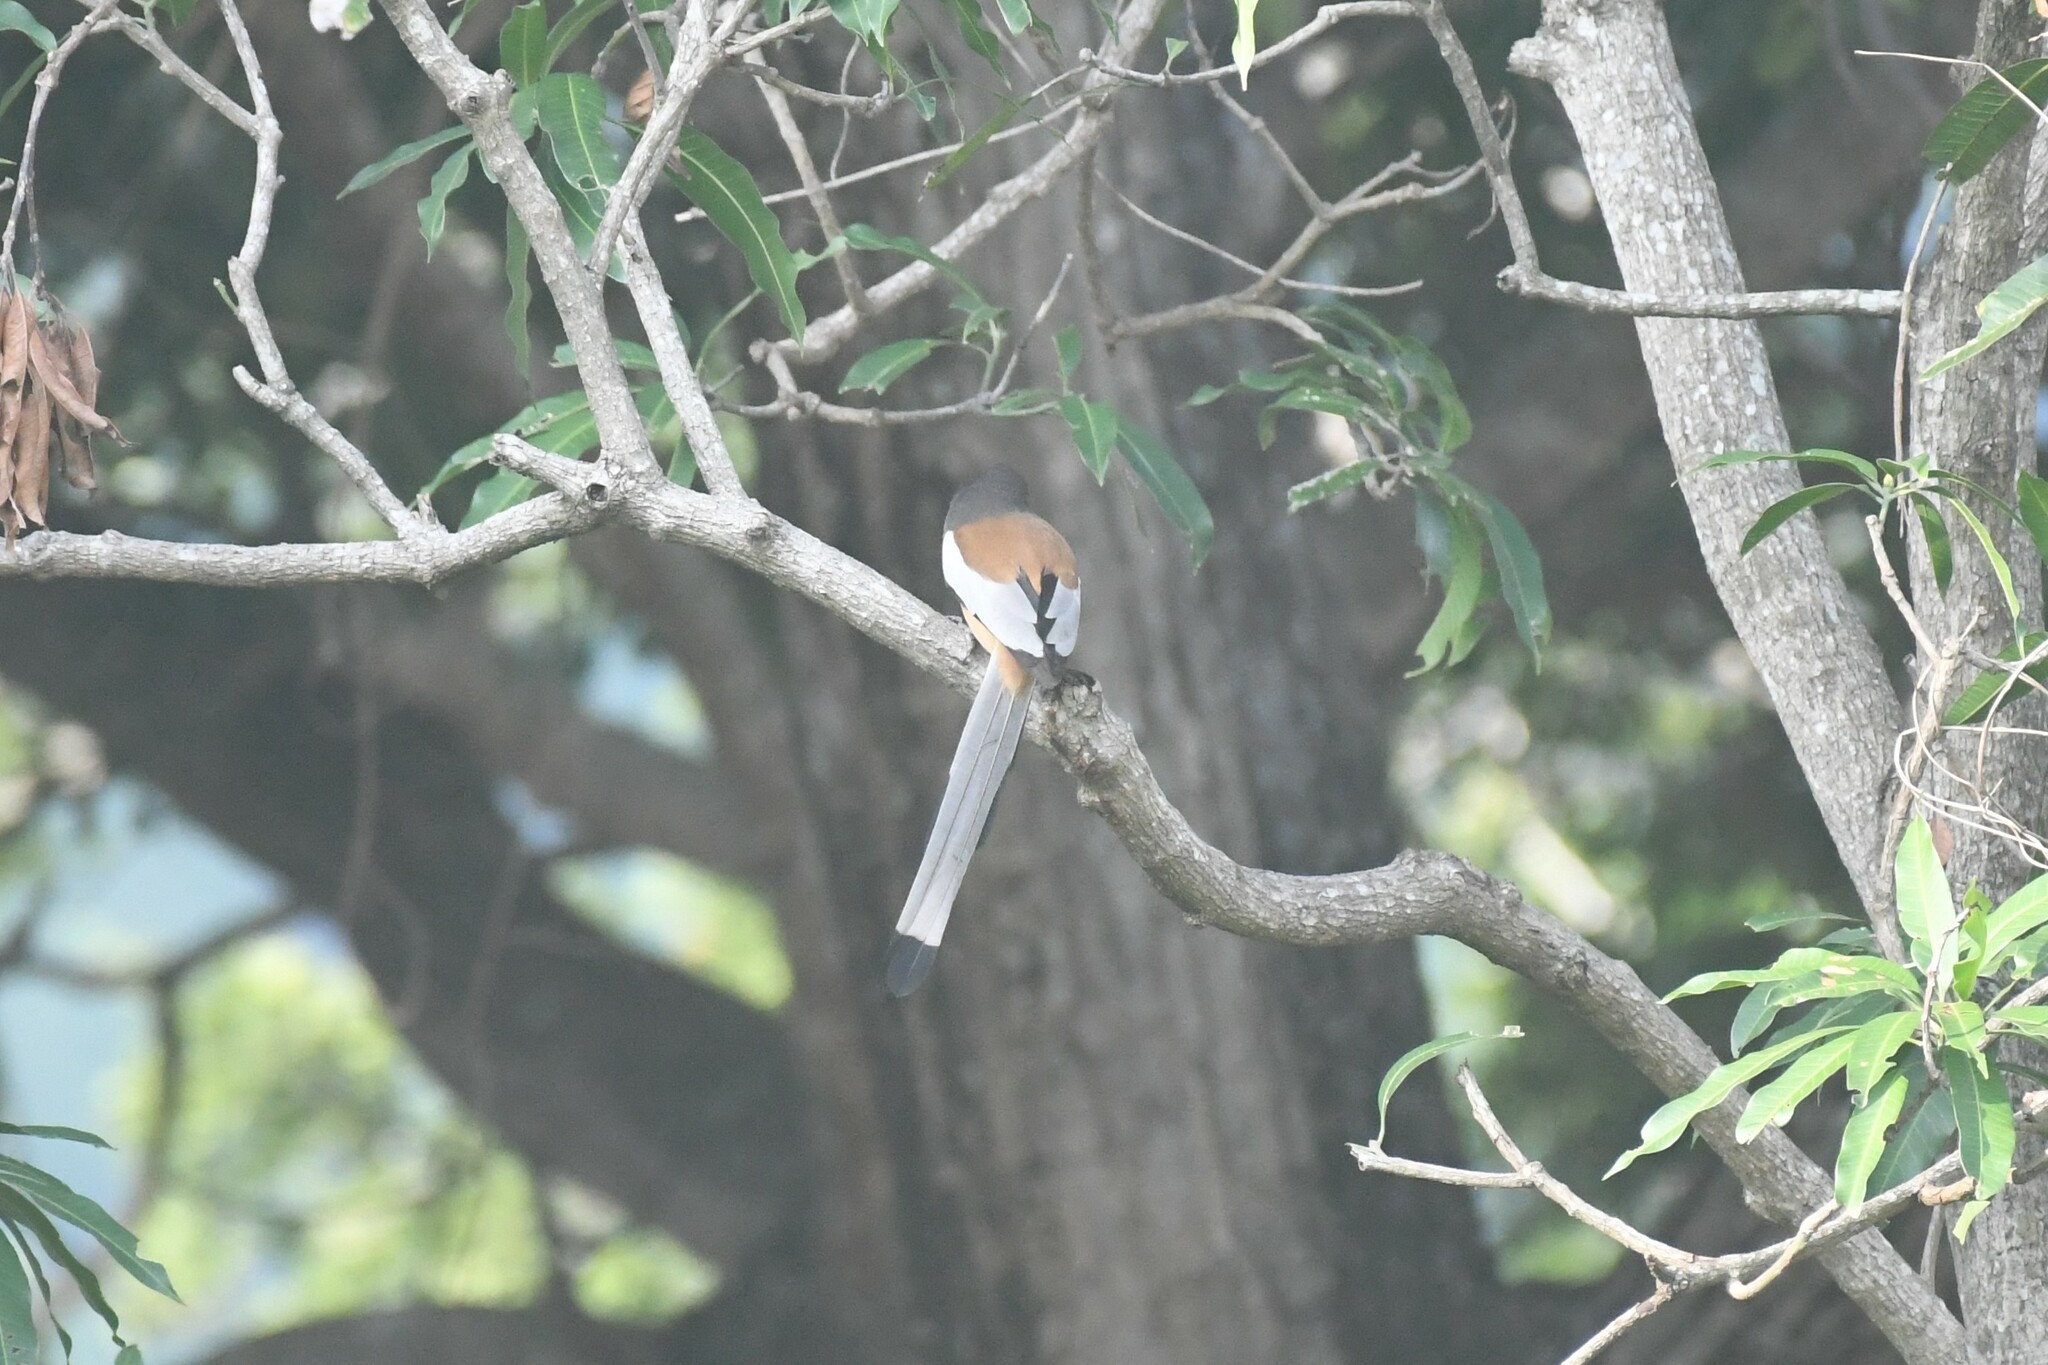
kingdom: Animalia
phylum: Chordata
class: Aves
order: Passeriformes
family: Corvidae
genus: Dendrocitta
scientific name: Dendrocitta vagabunda
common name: Rufous treepie
